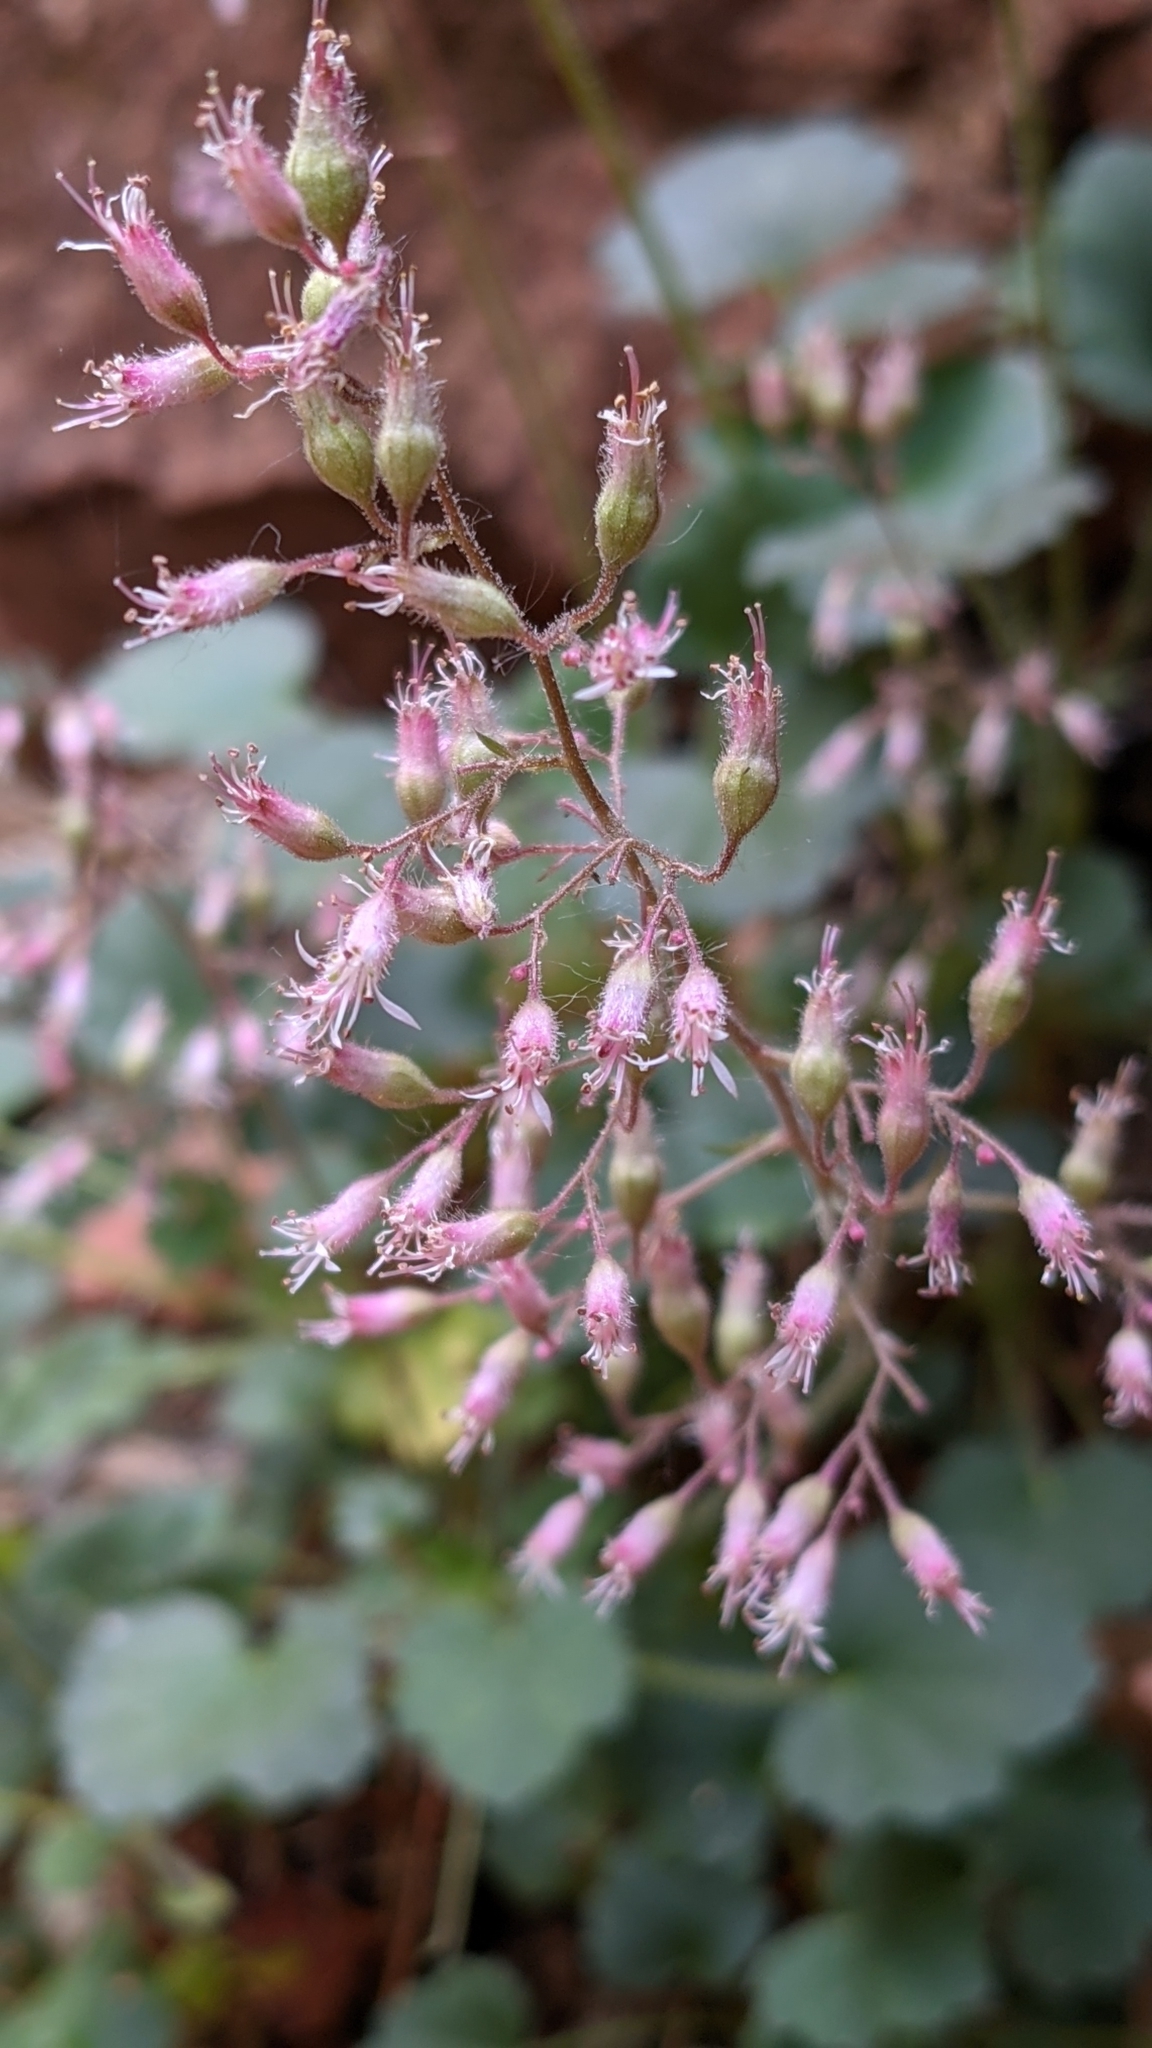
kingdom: Plantae
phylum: Tracheophyta
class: Magnoliopsida
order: Saxifragales
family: Saxifragaceae
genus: Heuchera
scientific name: Heuchera rubescens
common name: Jack-o'the-rocks
